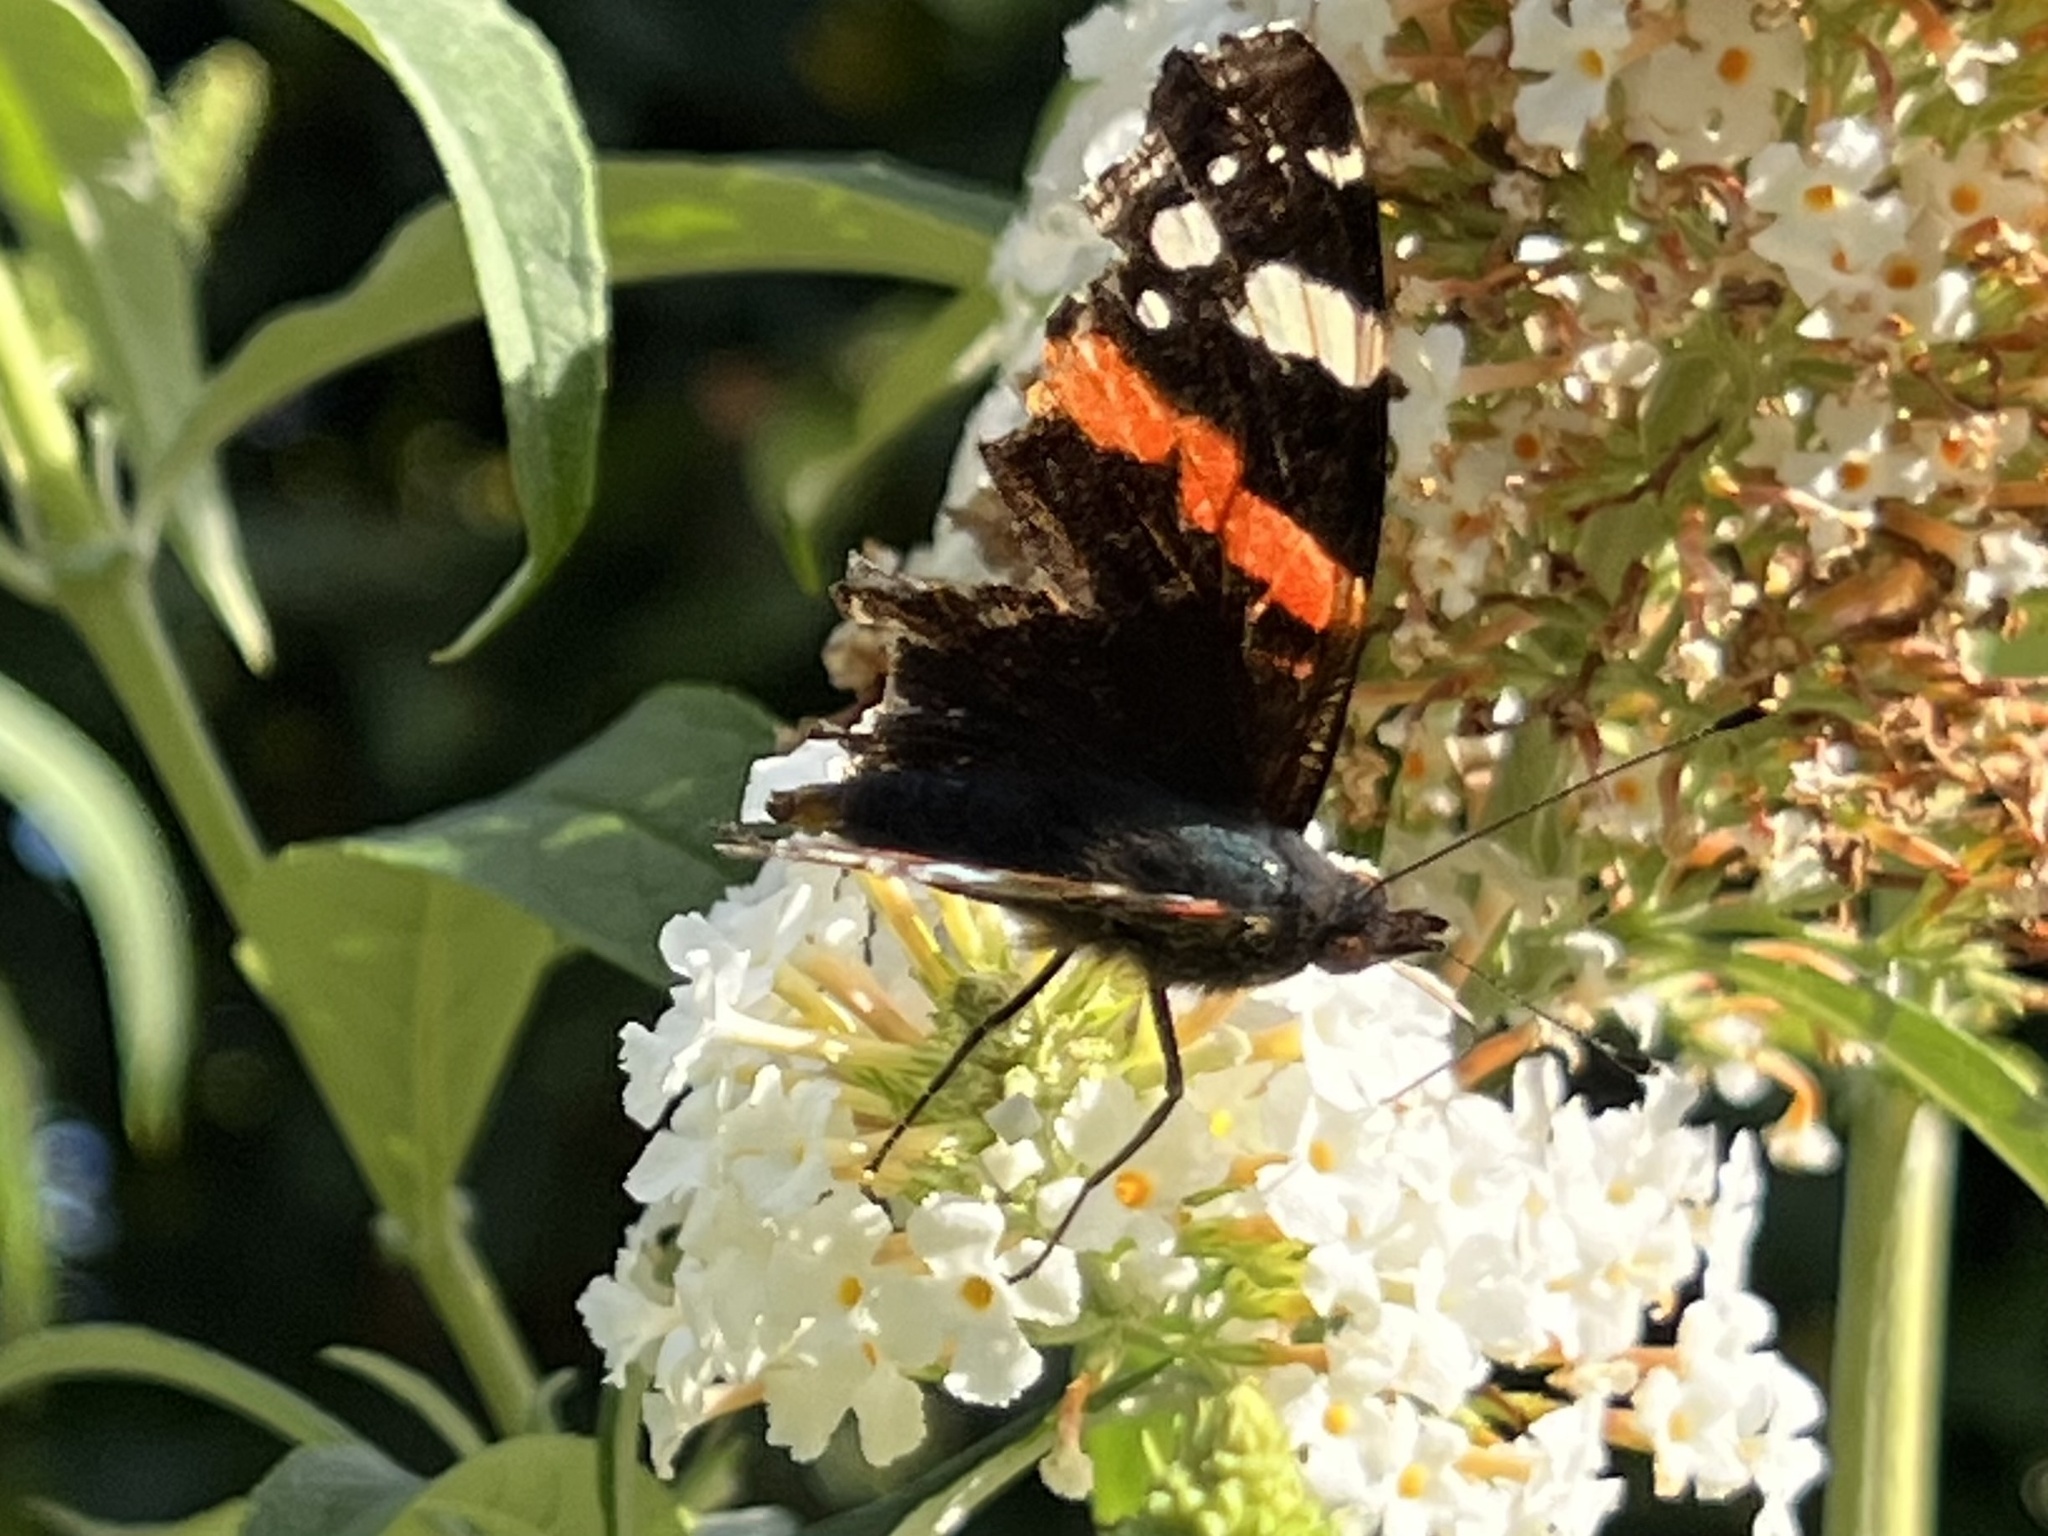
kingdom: Animalia
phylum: Arthropoda
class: Insecta
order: Lepidoptera
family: Nymphalidae
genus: Vanessa
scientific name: Vanessa atalanta
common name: Red admiral
